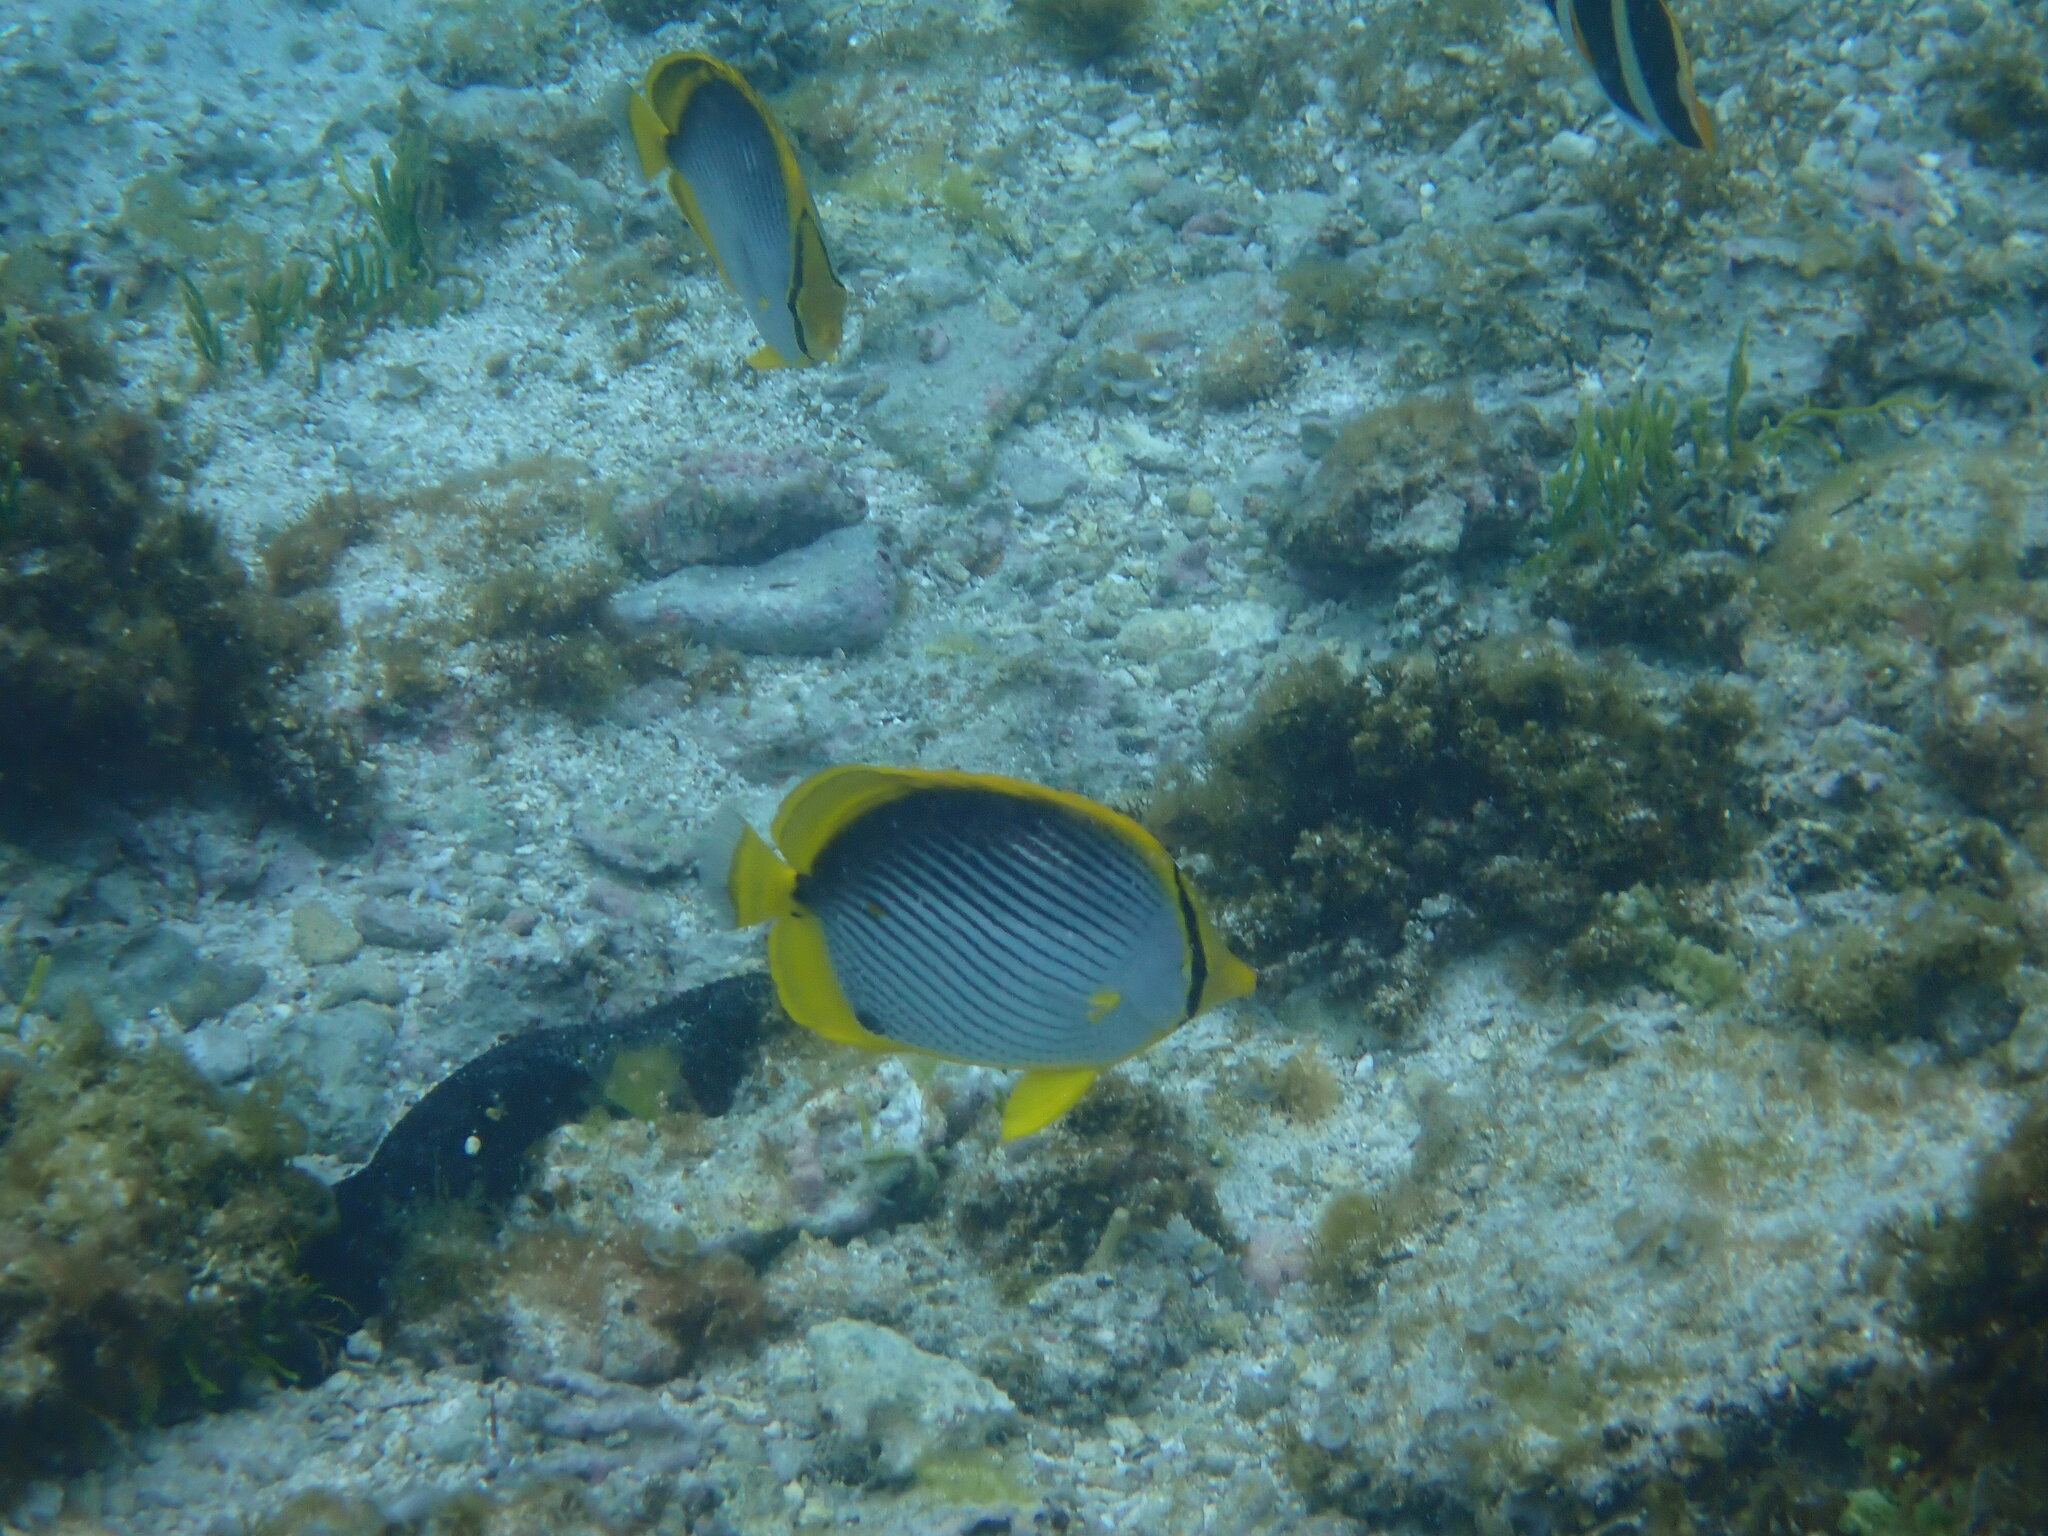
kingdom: Animalia
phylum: Chordata
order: Perciformes
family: Chaetodontidae
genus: Chaetodon
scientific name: Chaetodon melannotus
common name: Blackback butterflyfish
